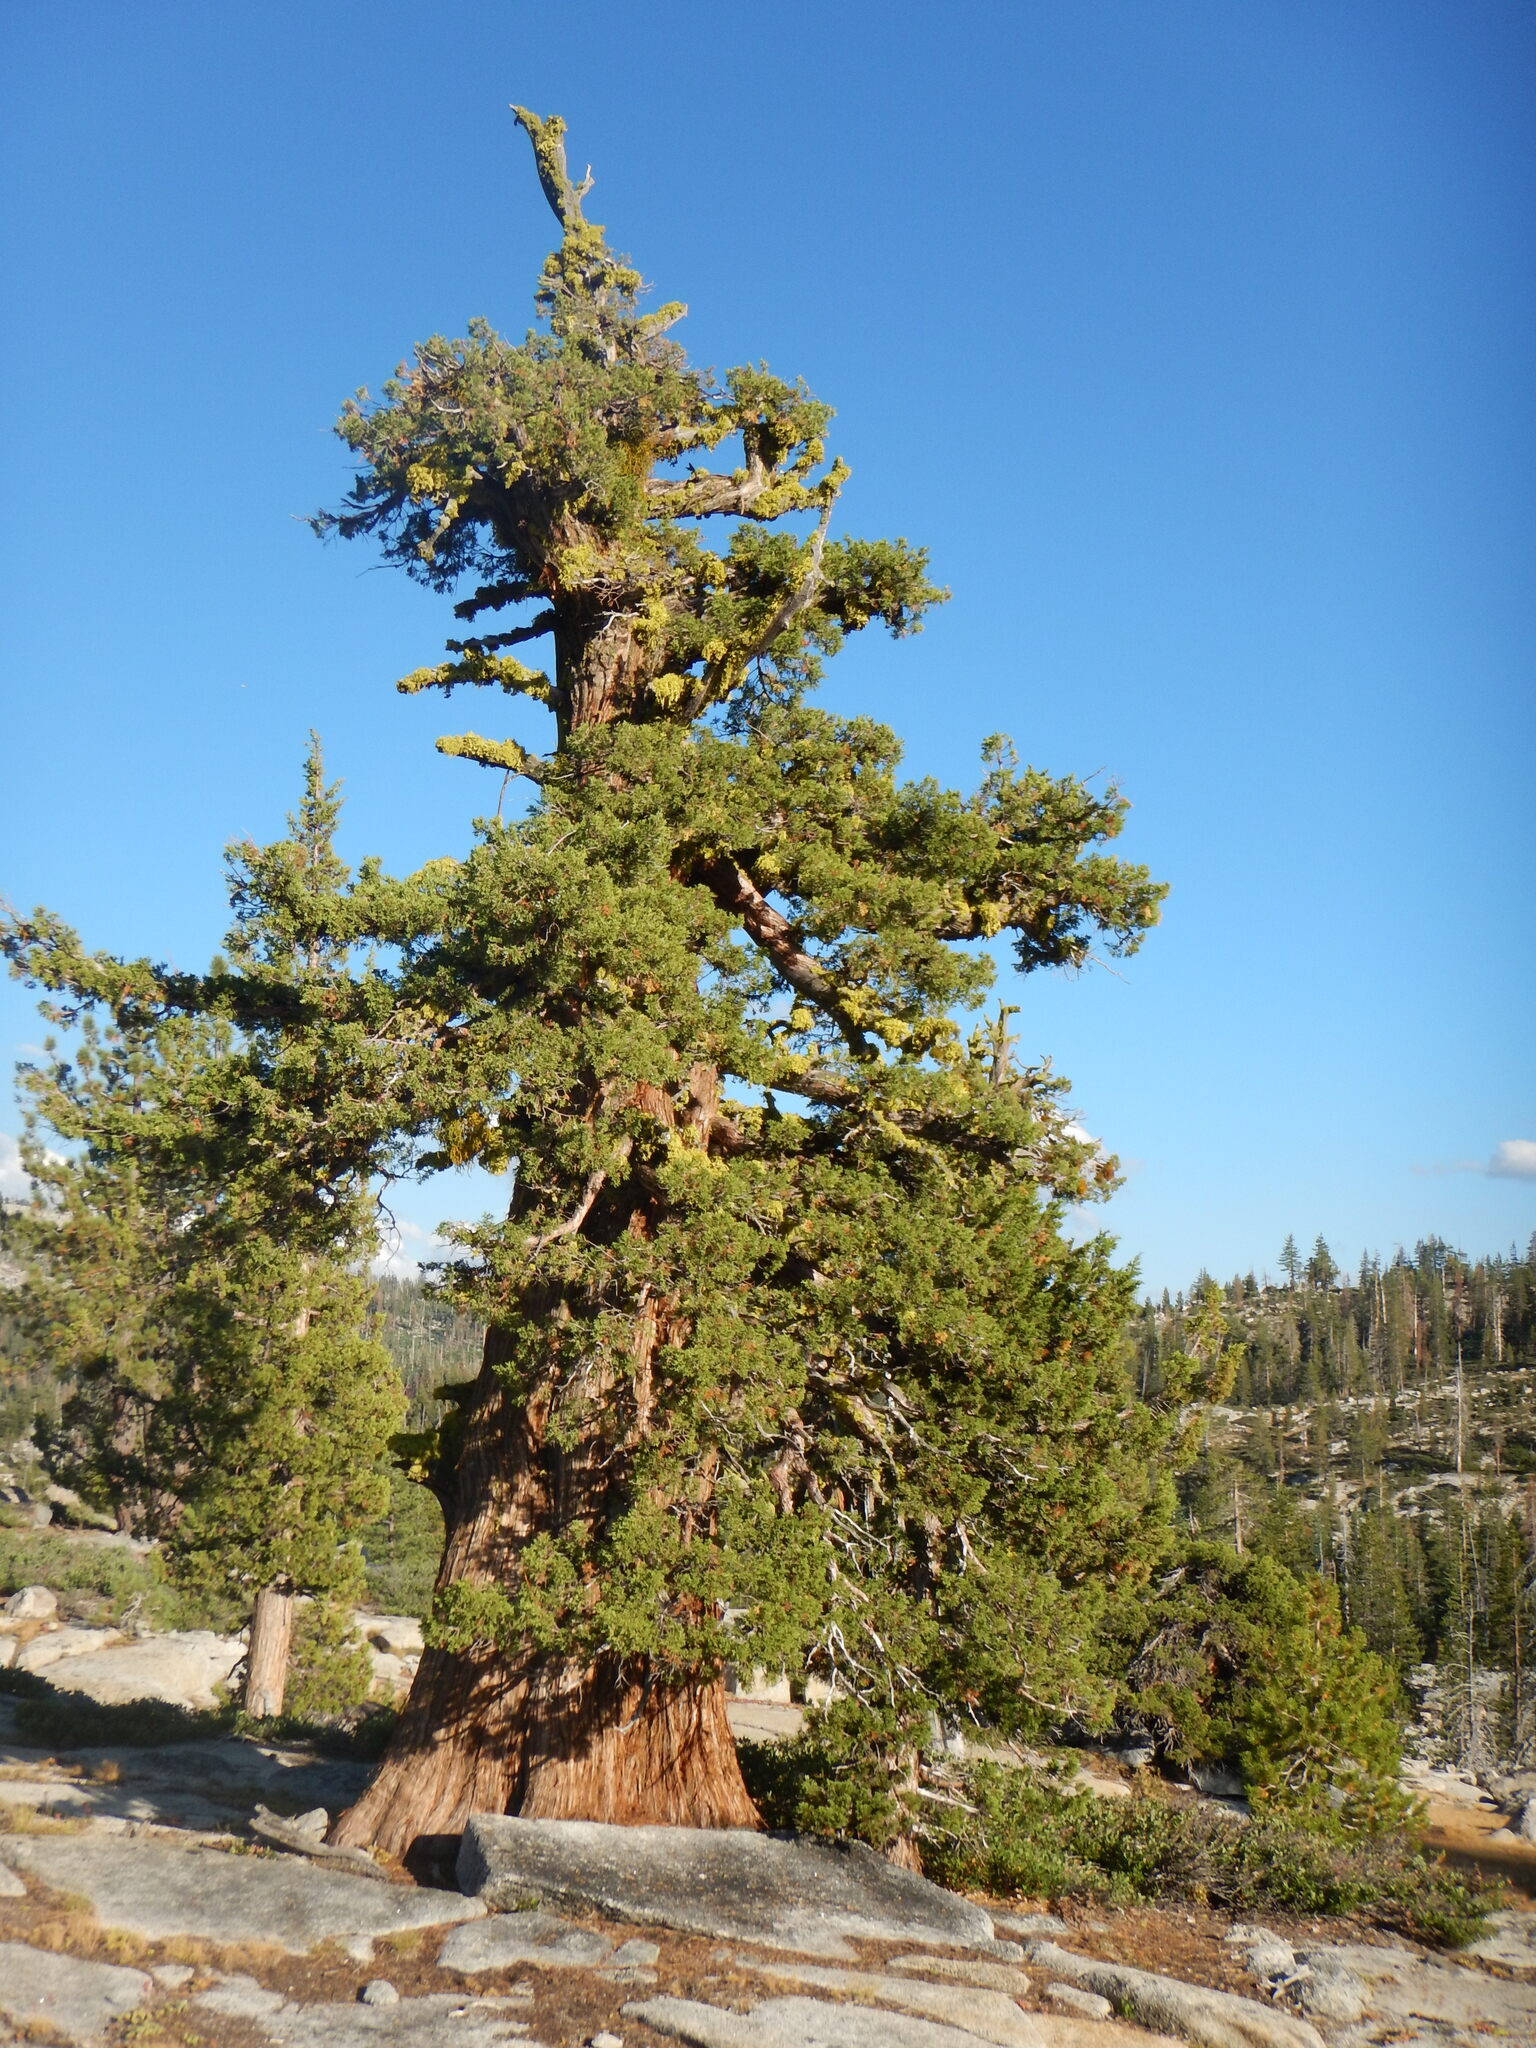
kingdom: Plantae
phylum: Tracheophyta
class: Pinopsida
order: Pinales
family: Cupressaceae
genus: Juniperus
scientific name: Juniperus occidentalis
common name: Western juniper
